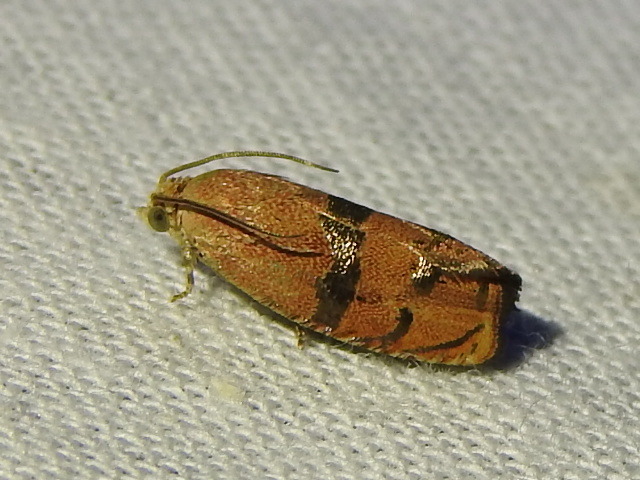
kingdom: Animalia
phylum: Arthropoda
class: Insecta
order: Lepidoptera
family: Tortricidae
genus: Cydia
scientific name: Cydia latiferreana
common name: Filbertworm moth
